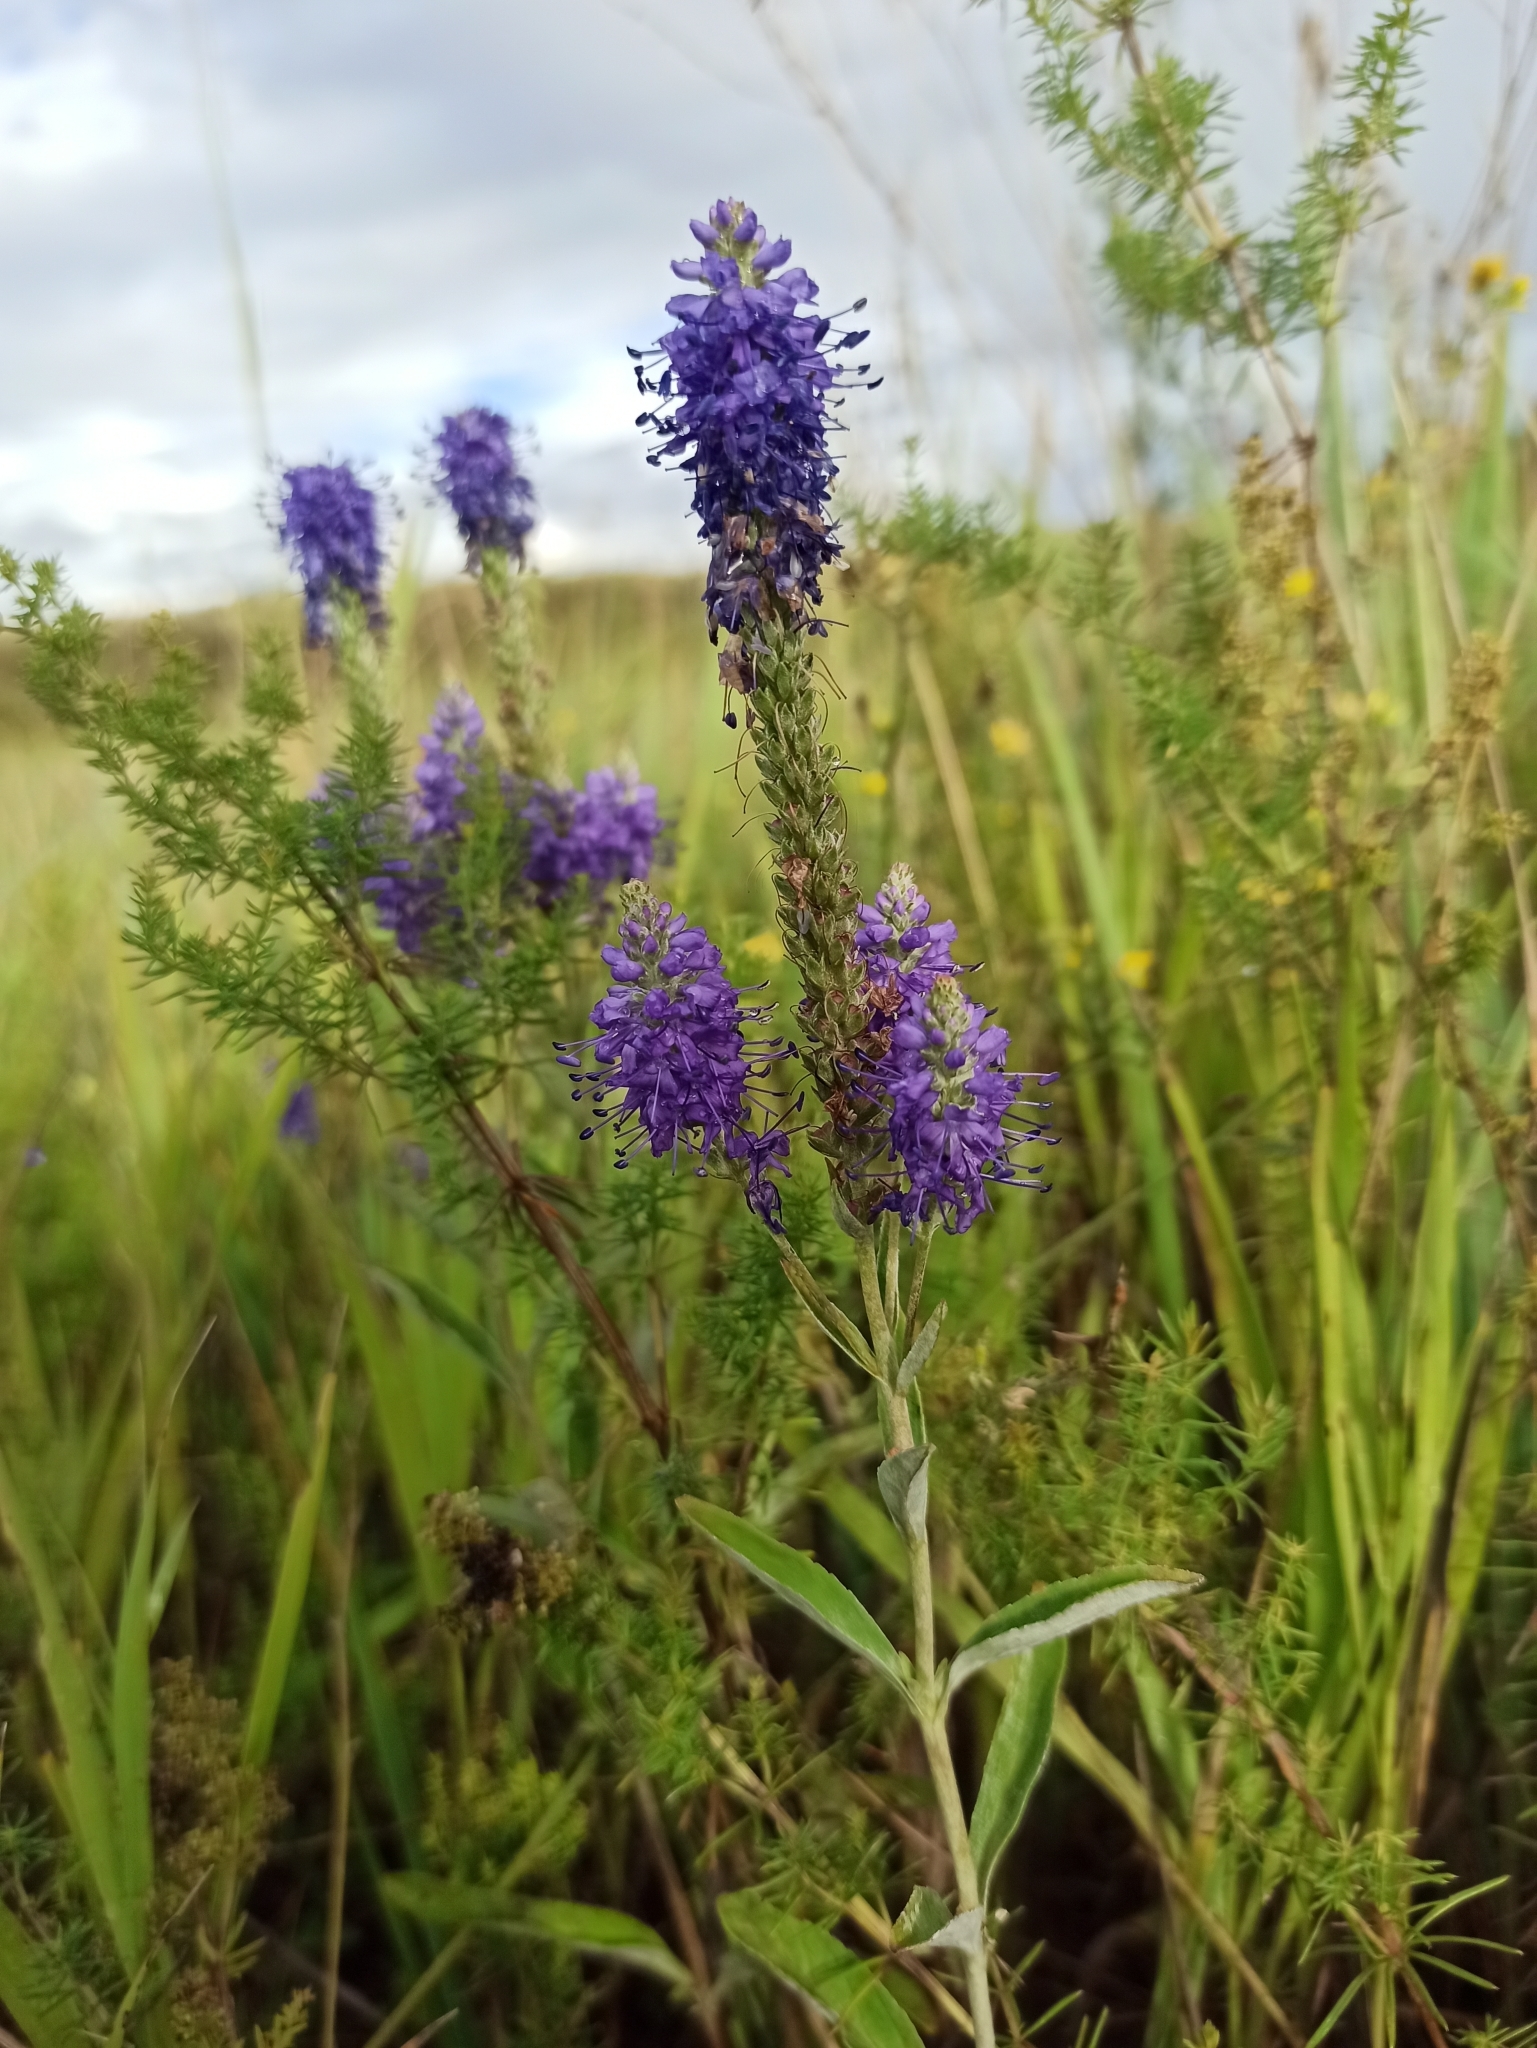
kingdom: Plantae
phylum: Tracheophyta
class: Magnoliopsida
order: Lamiales
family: Plantaginaceae
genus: Veronica
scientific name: Veronica spicata
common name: Spiked speedwell
